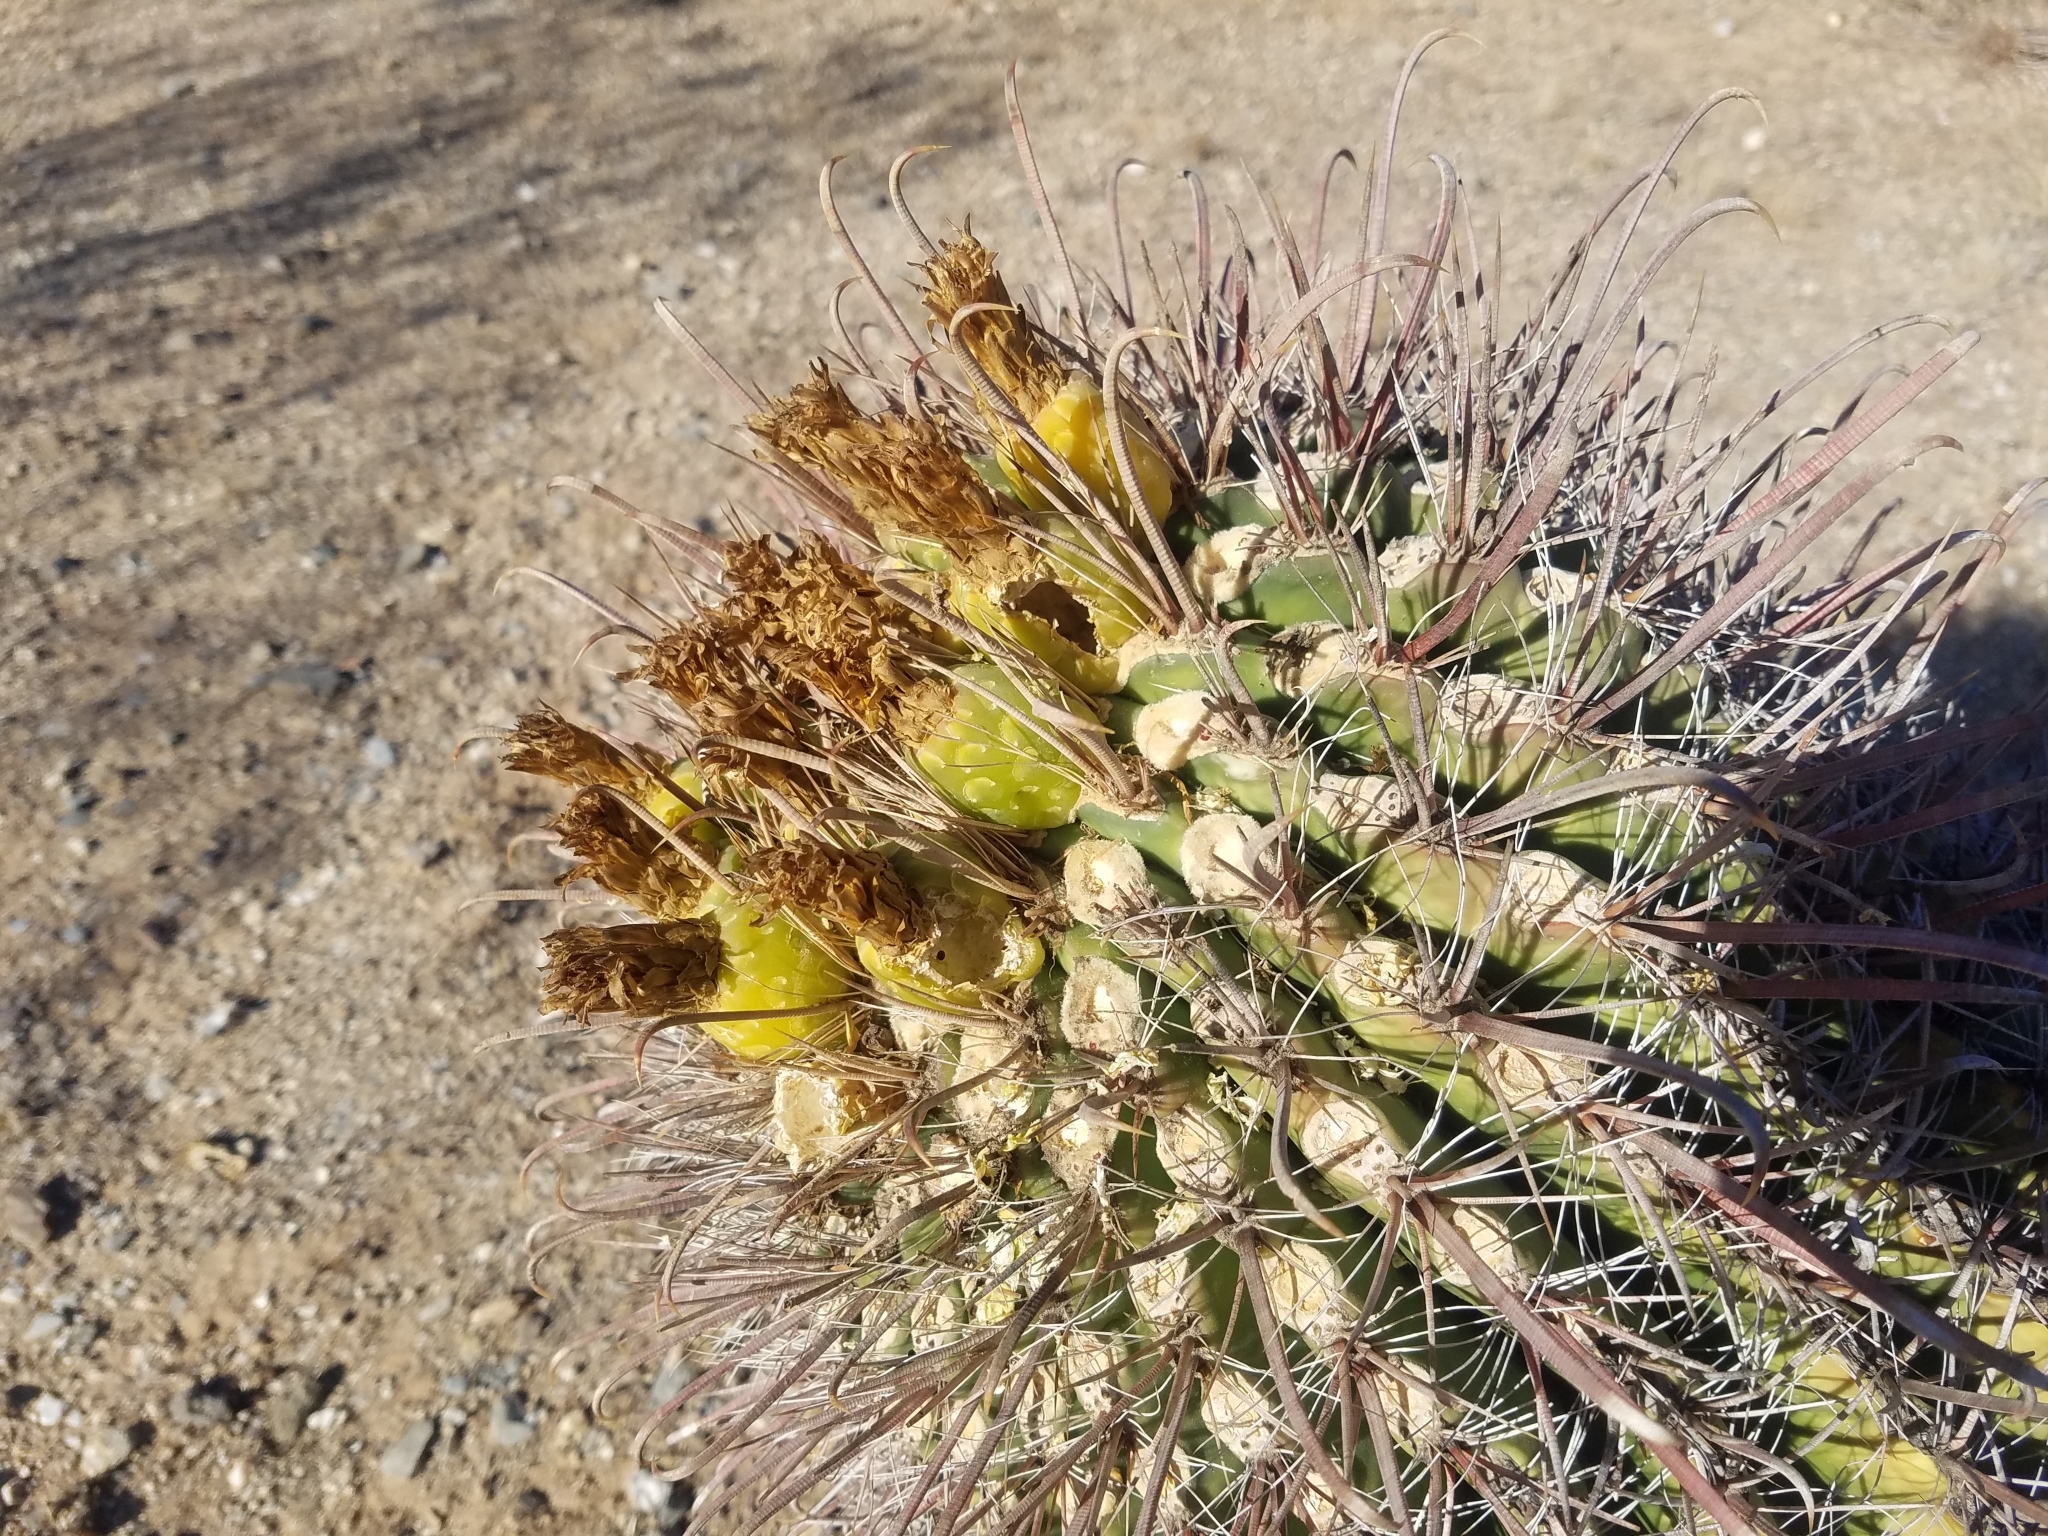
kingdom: Plantae
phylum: Tracheophyta
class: Magnoliopsida
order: Caryophyllales
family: Cactaceae
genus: Ferocactus
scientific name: Ferocactus wislizeni
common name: Candy barrel cactus
